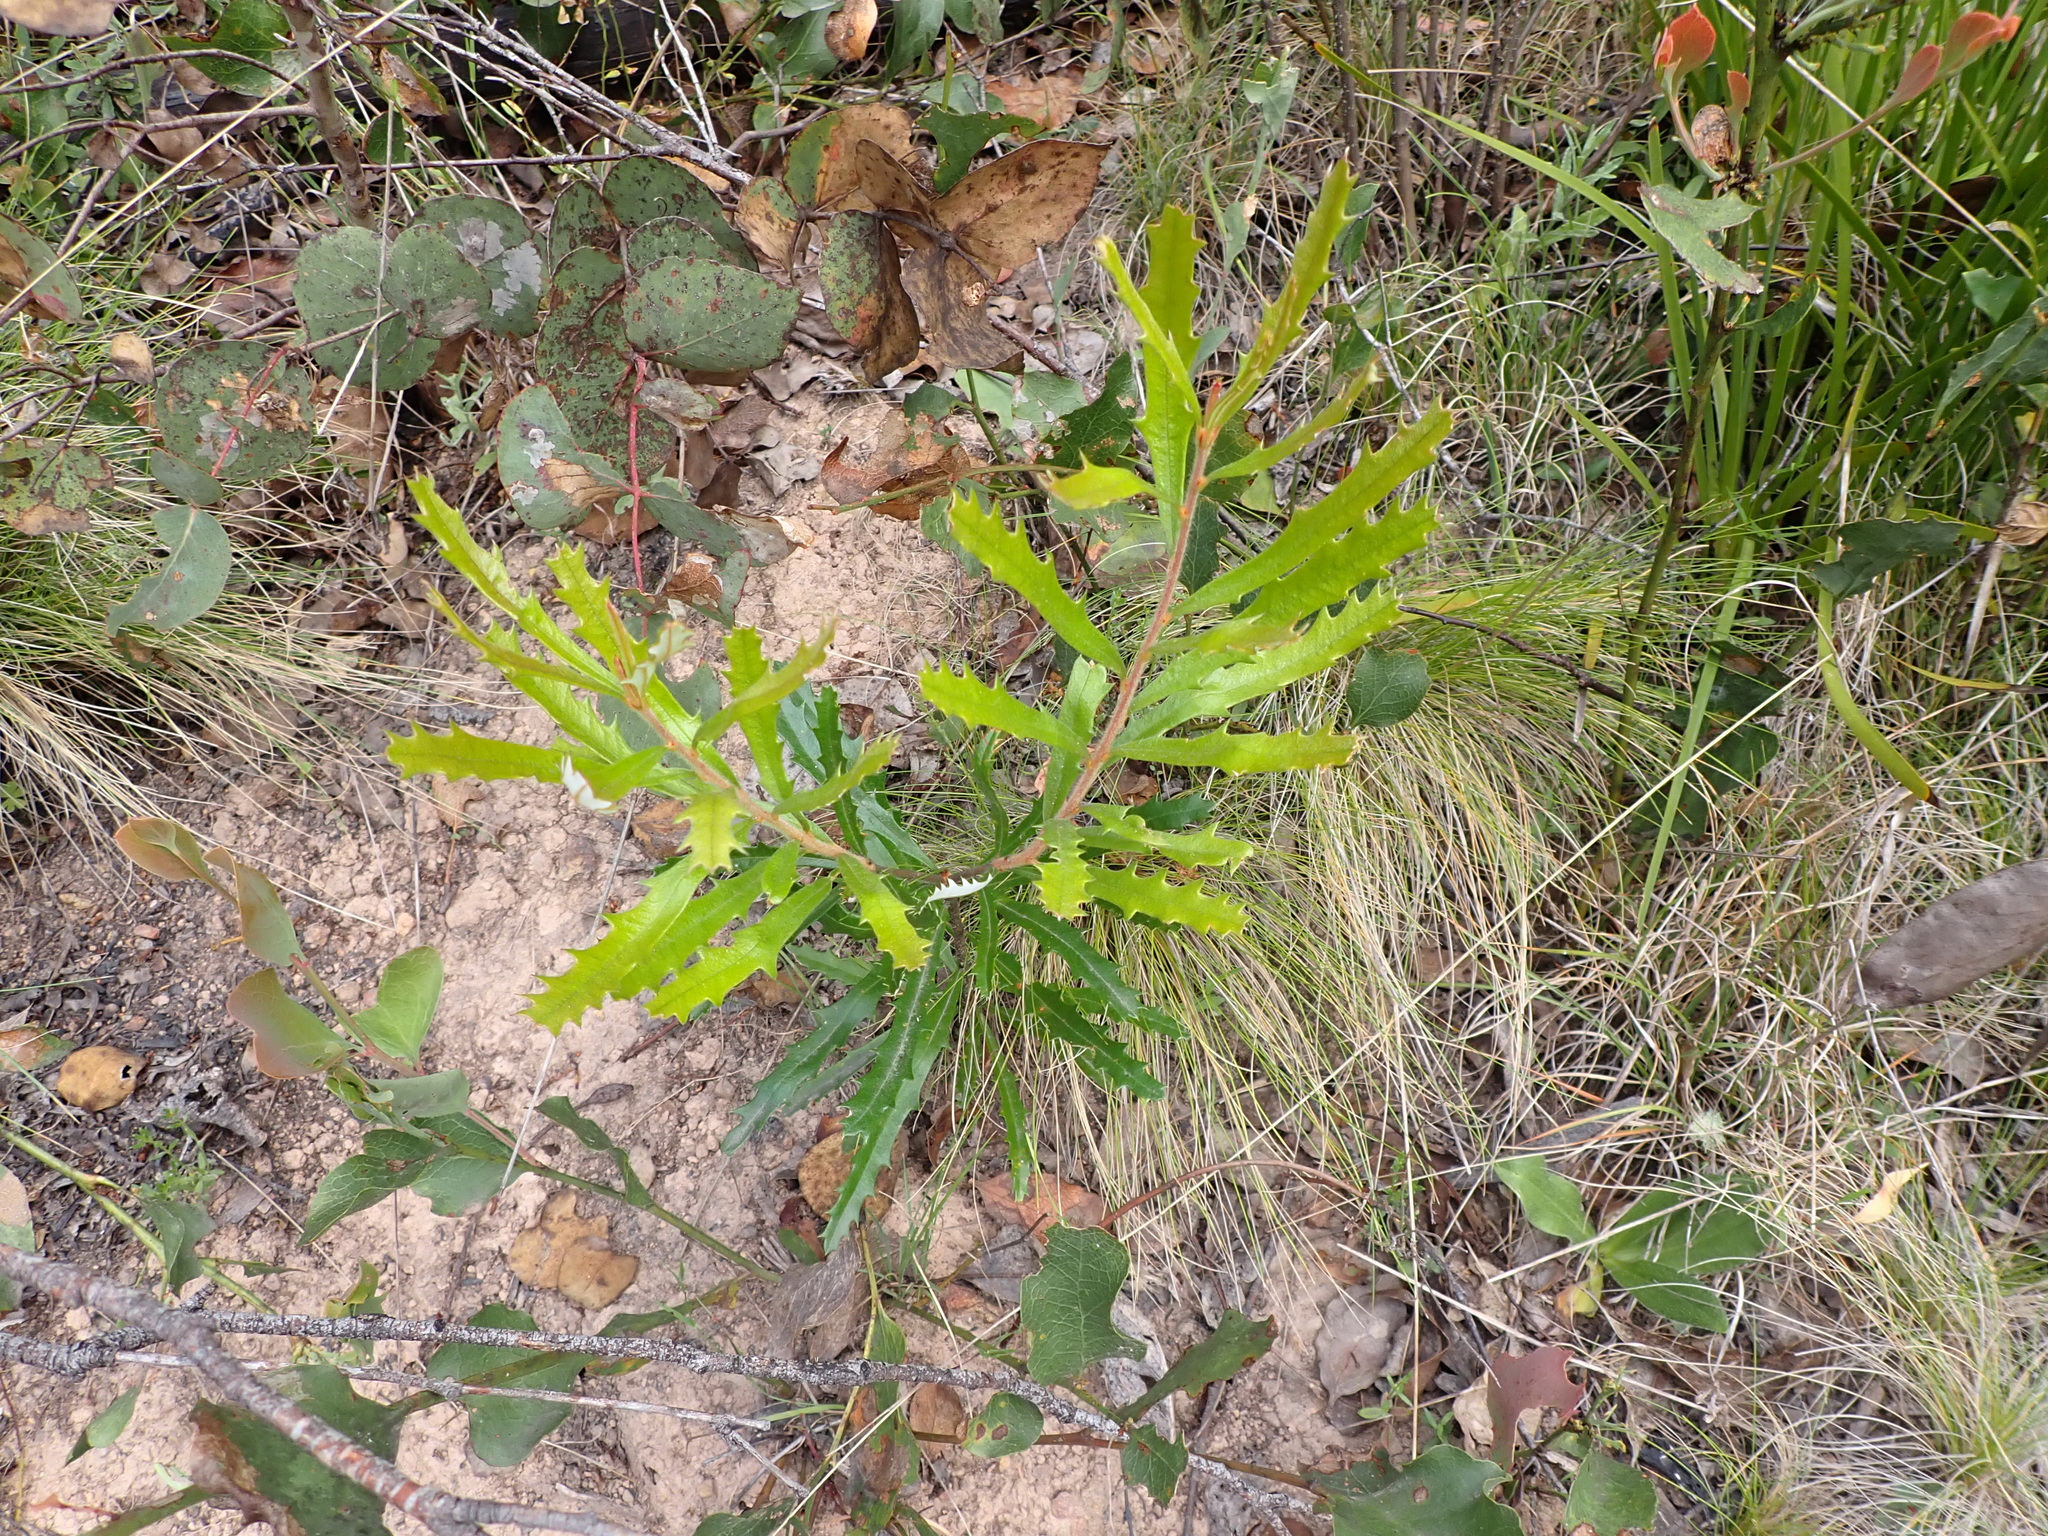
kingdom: Plantae
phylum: Tracheophyta
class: Magnoliopsida
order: Proteales
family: Proteaceae
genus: Banksia
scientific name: Banksia canei
